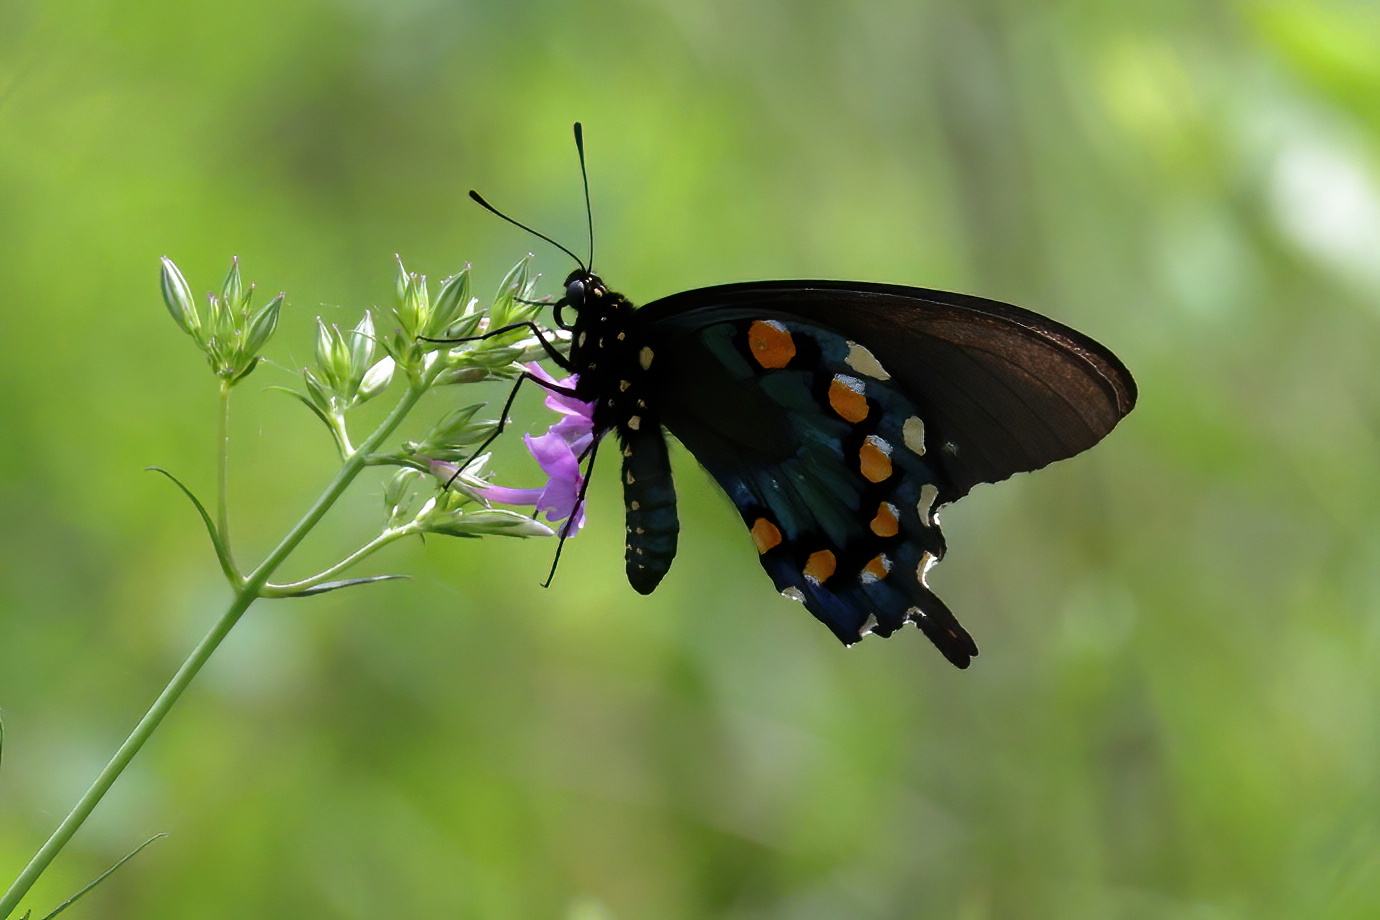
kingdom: Animalia
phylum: Arthropoda
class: Insecta
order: Lepidoptera
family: Papilionidae
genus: Battus
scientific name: Battus philenor
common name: Pipevine swallowtail
